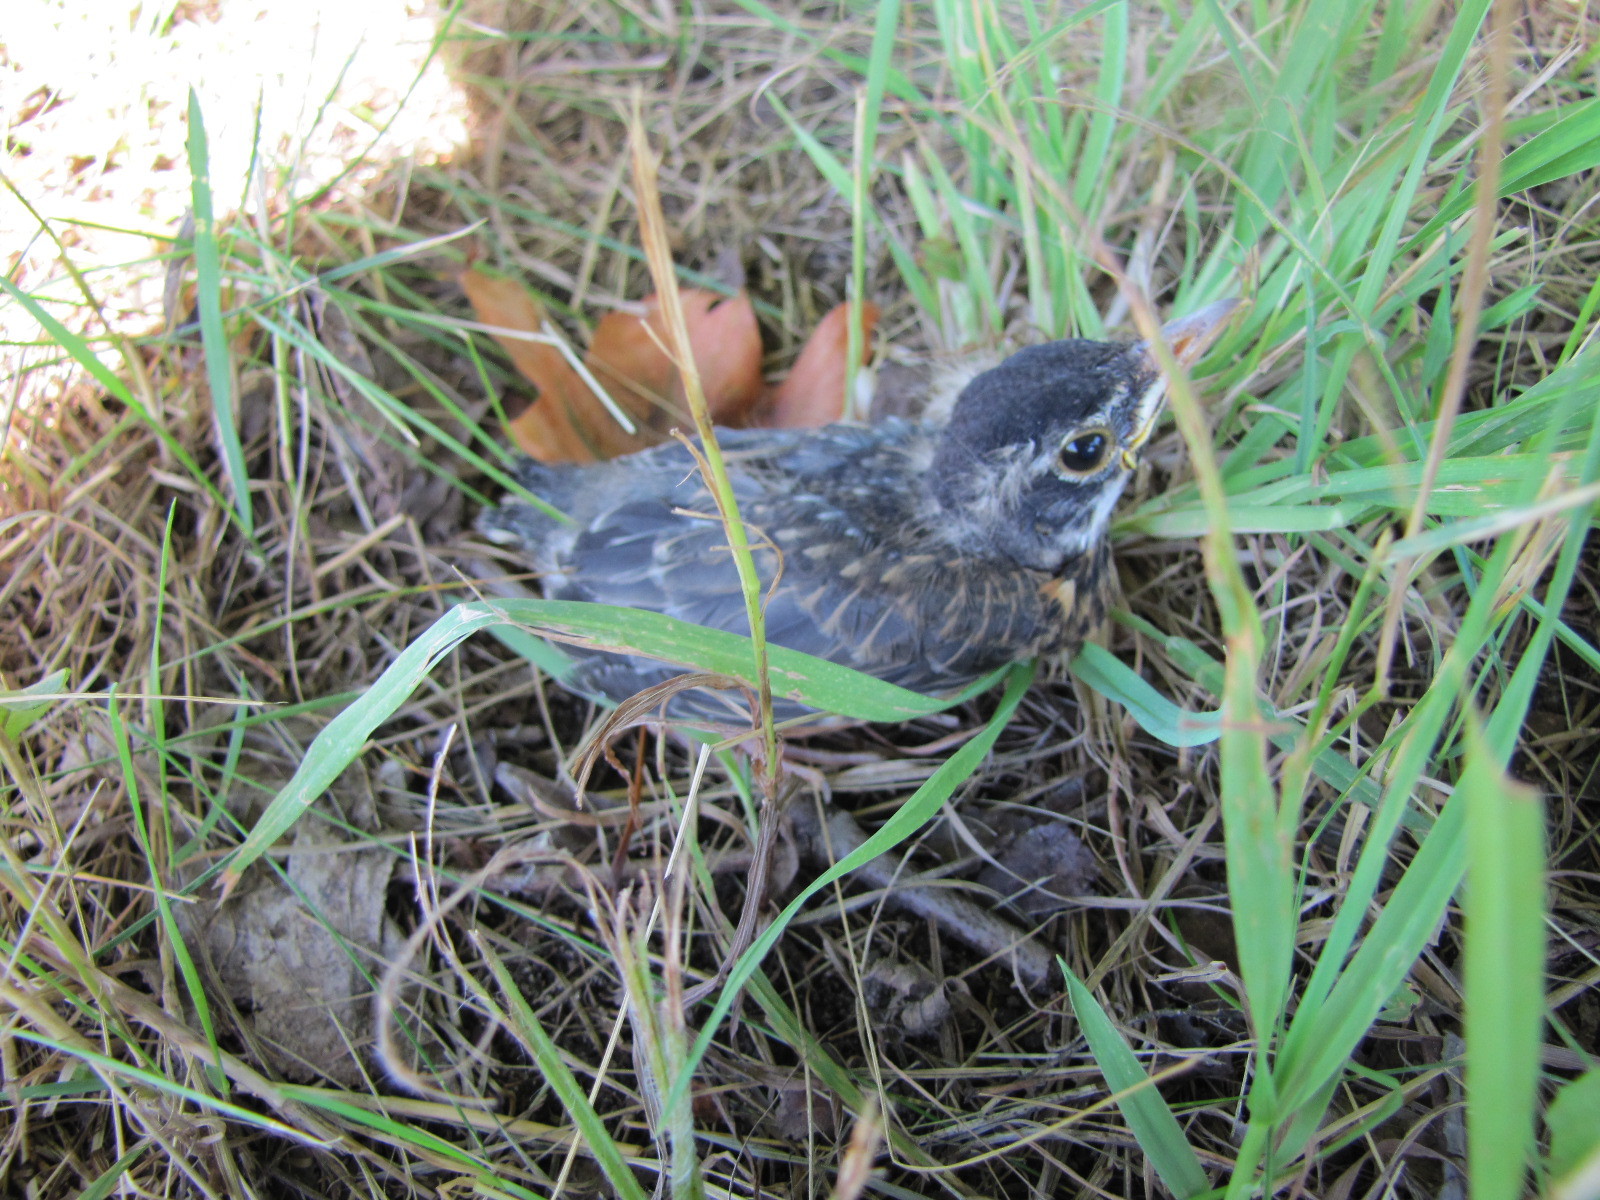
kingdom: Animalia
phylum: Chordata
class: Aves
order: Passeriformes
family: Turdidae
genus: Turdus
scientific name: Turdus migratorius
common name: American robin
